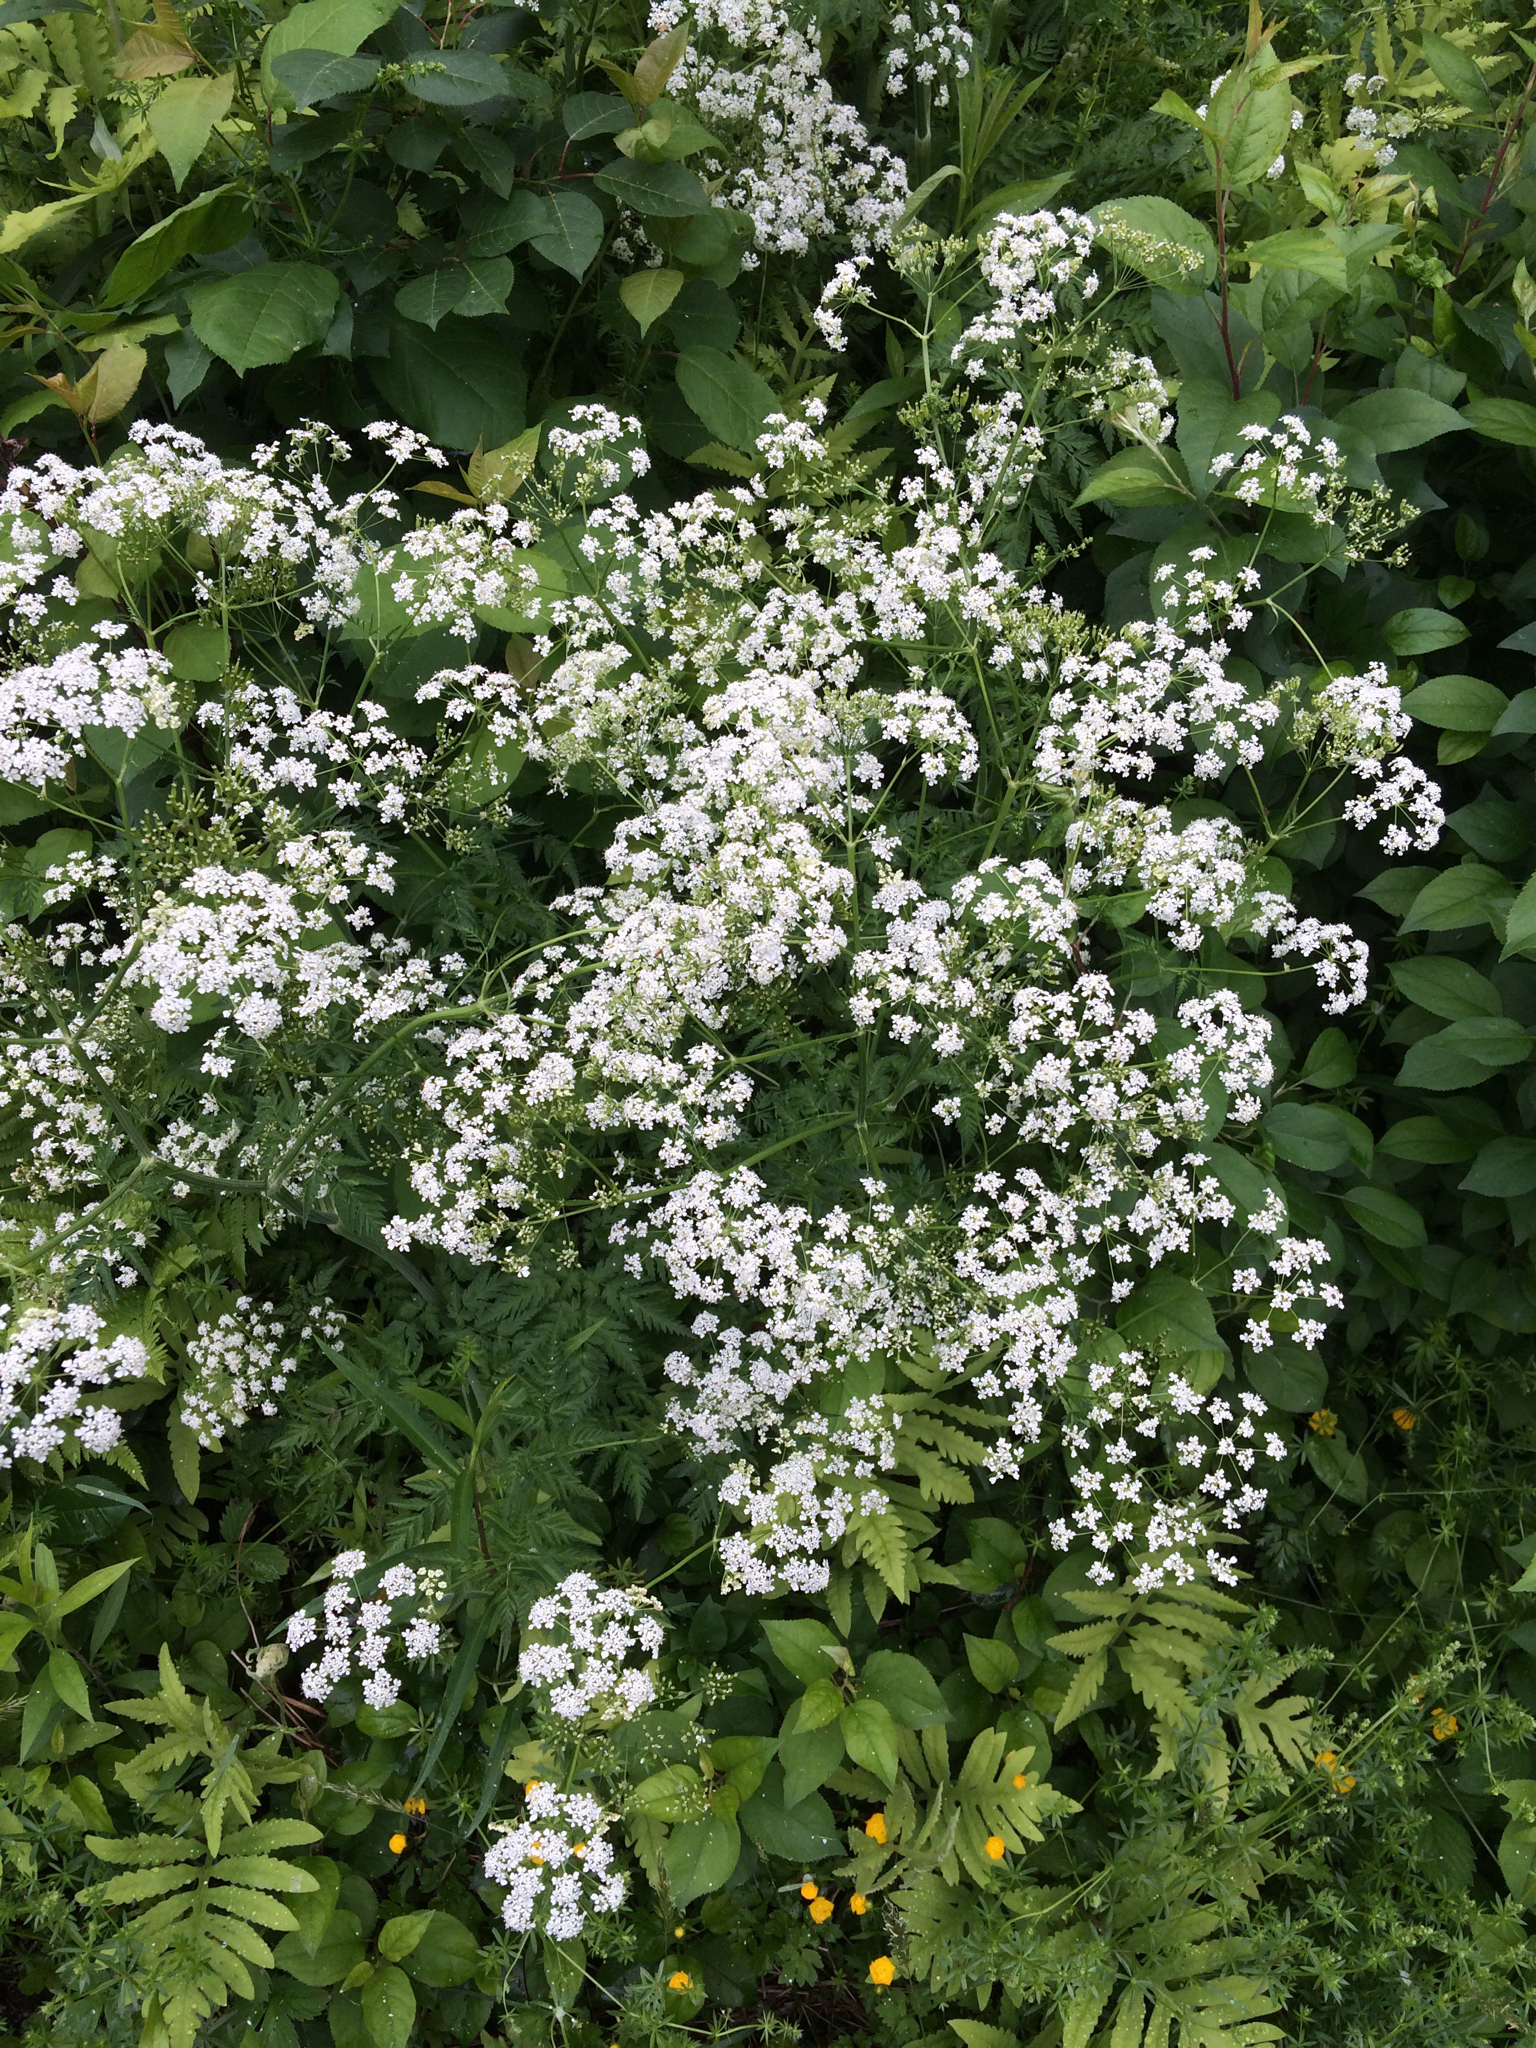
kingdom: Plantae
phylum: Tracheophyta
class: Magnoliopsida
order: Apiales
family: Apiaceae
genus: Anthriscus
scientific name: Anthriscus sylvestris
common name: Cow parsley
